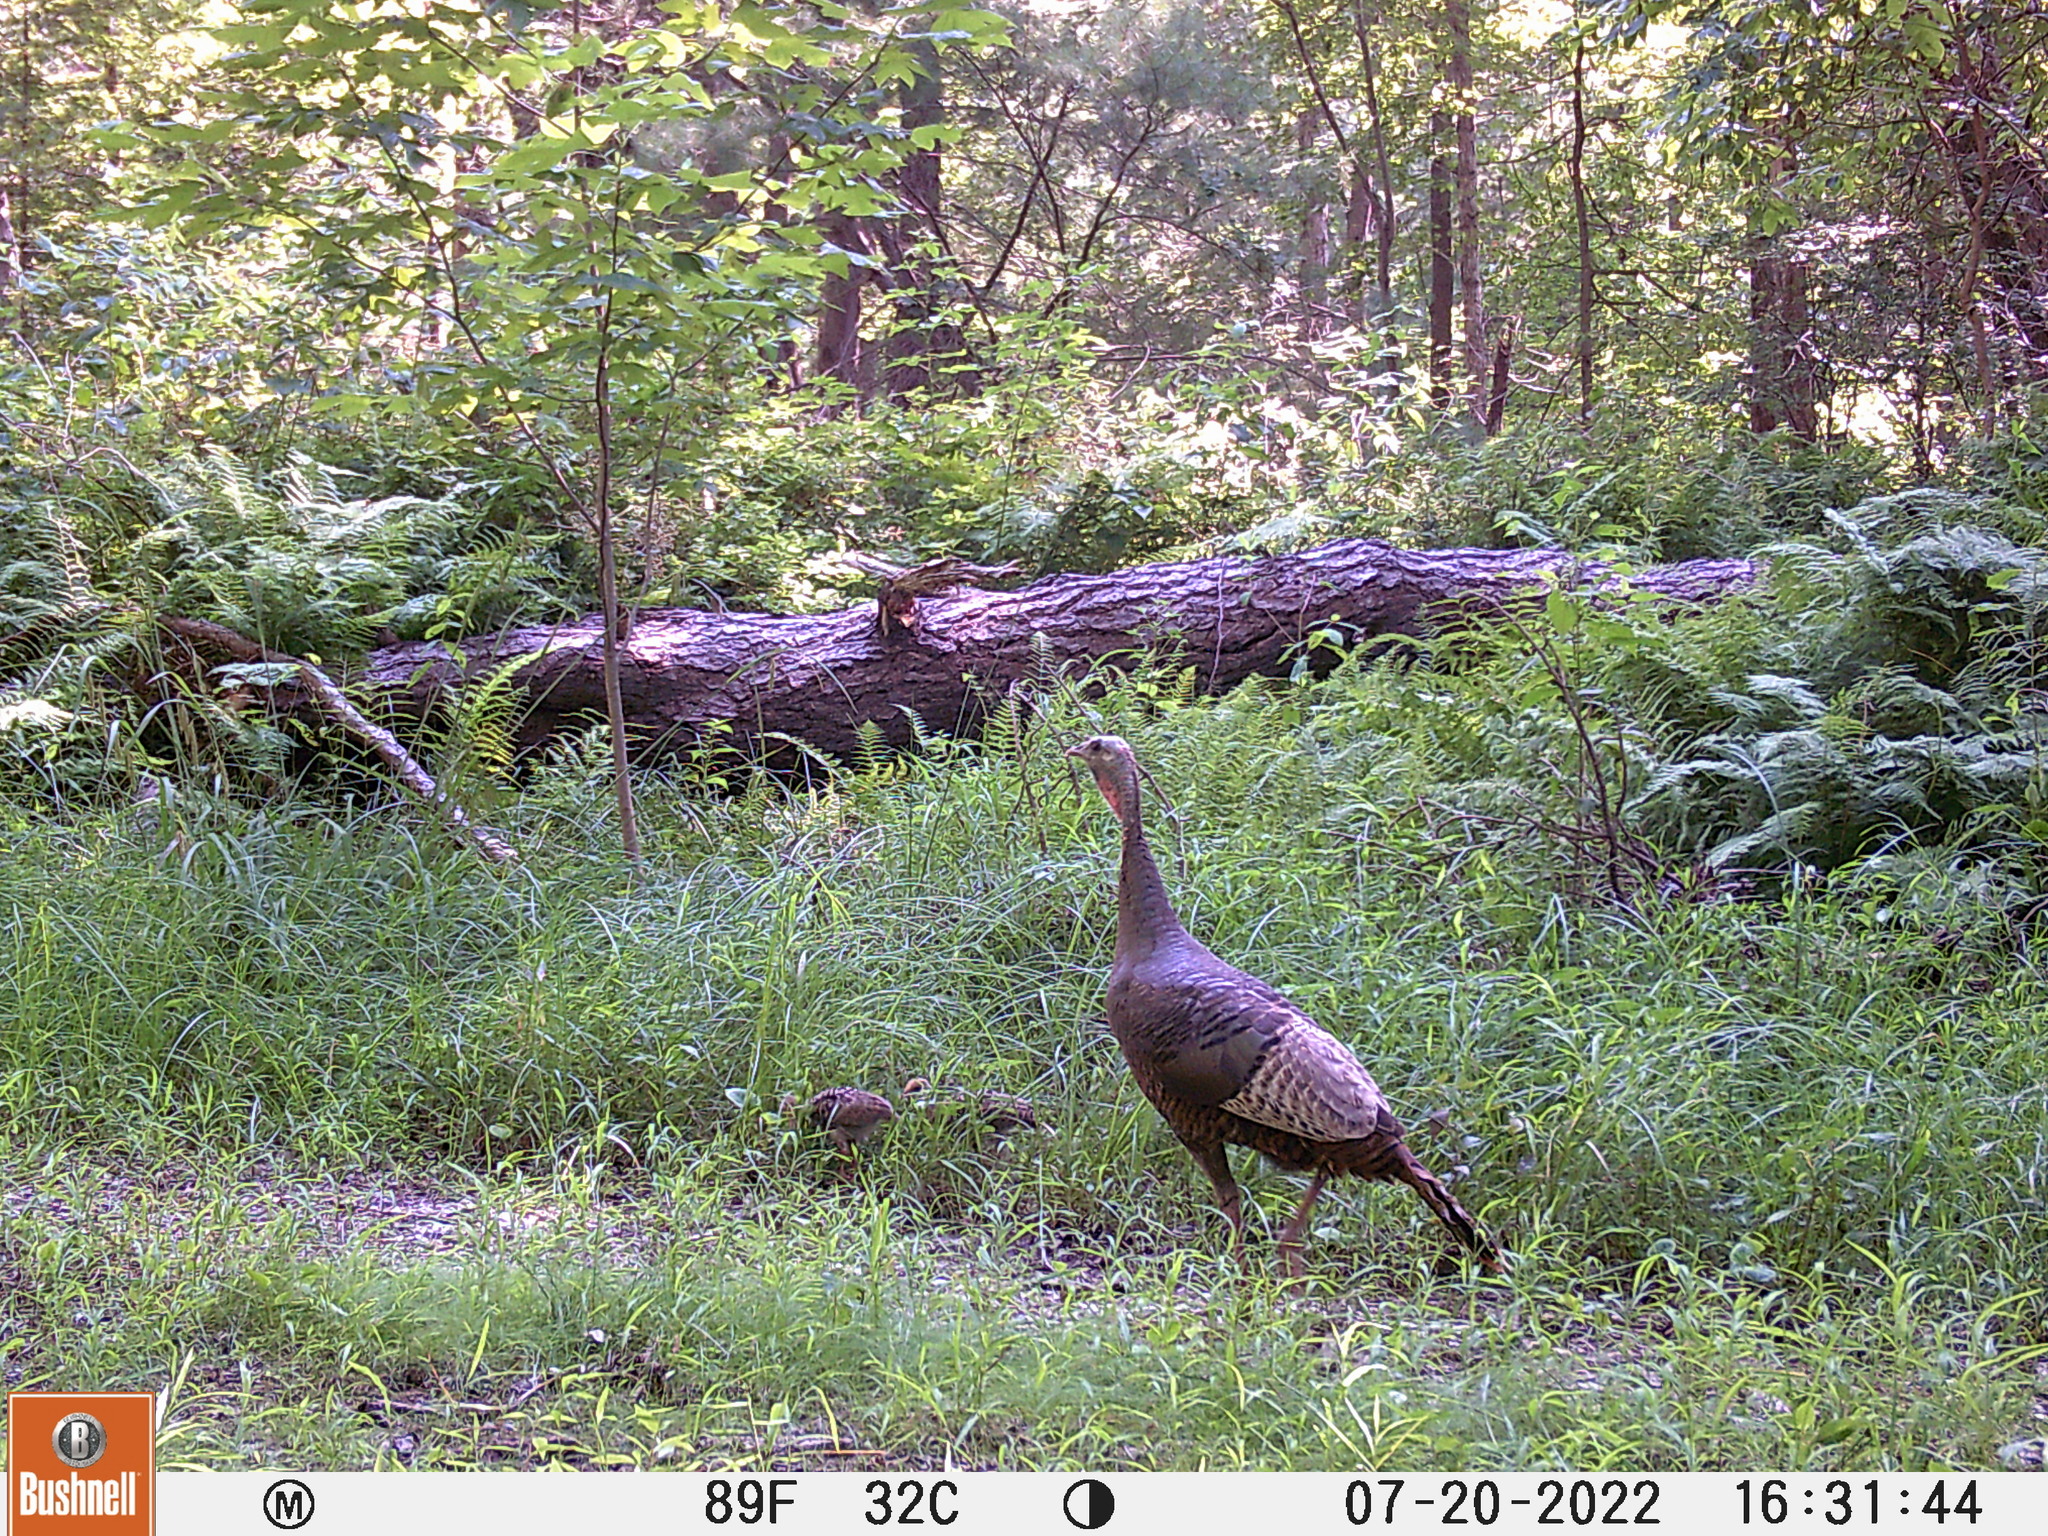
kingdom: Animalia
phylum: Chordata
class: Aves
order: Galliformes
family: Phasianidae
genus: Meleagris
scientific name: Meleagris gallopavo
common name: Wild turkey
